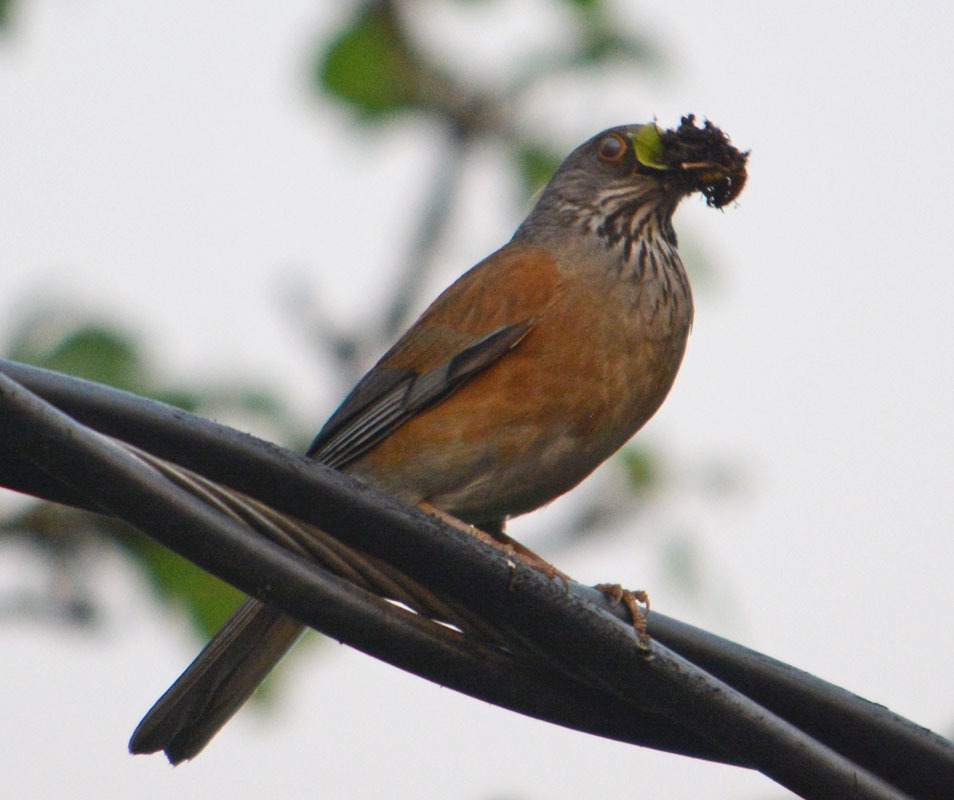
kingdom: Animalia
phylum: Chordata
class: Aves
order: Passeriformes
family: Turdidae
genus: Turdus
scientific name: Turdus rufopalliatus
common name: Rufous-backed robin
